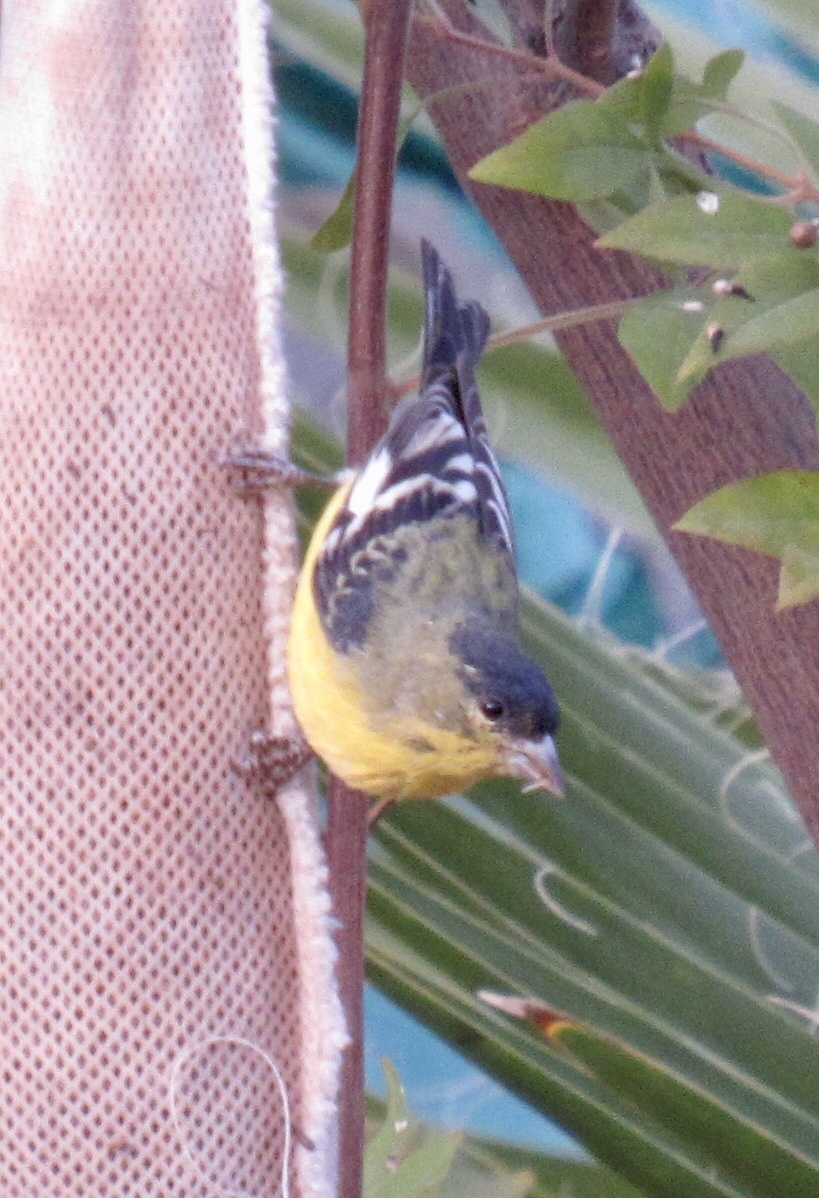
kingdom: Animalia
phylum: Chordata
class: Aves
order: Passeriformes
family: Fringillidae
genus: Spinus
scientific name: Spinus psaltria
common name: Lesser goldfinch
